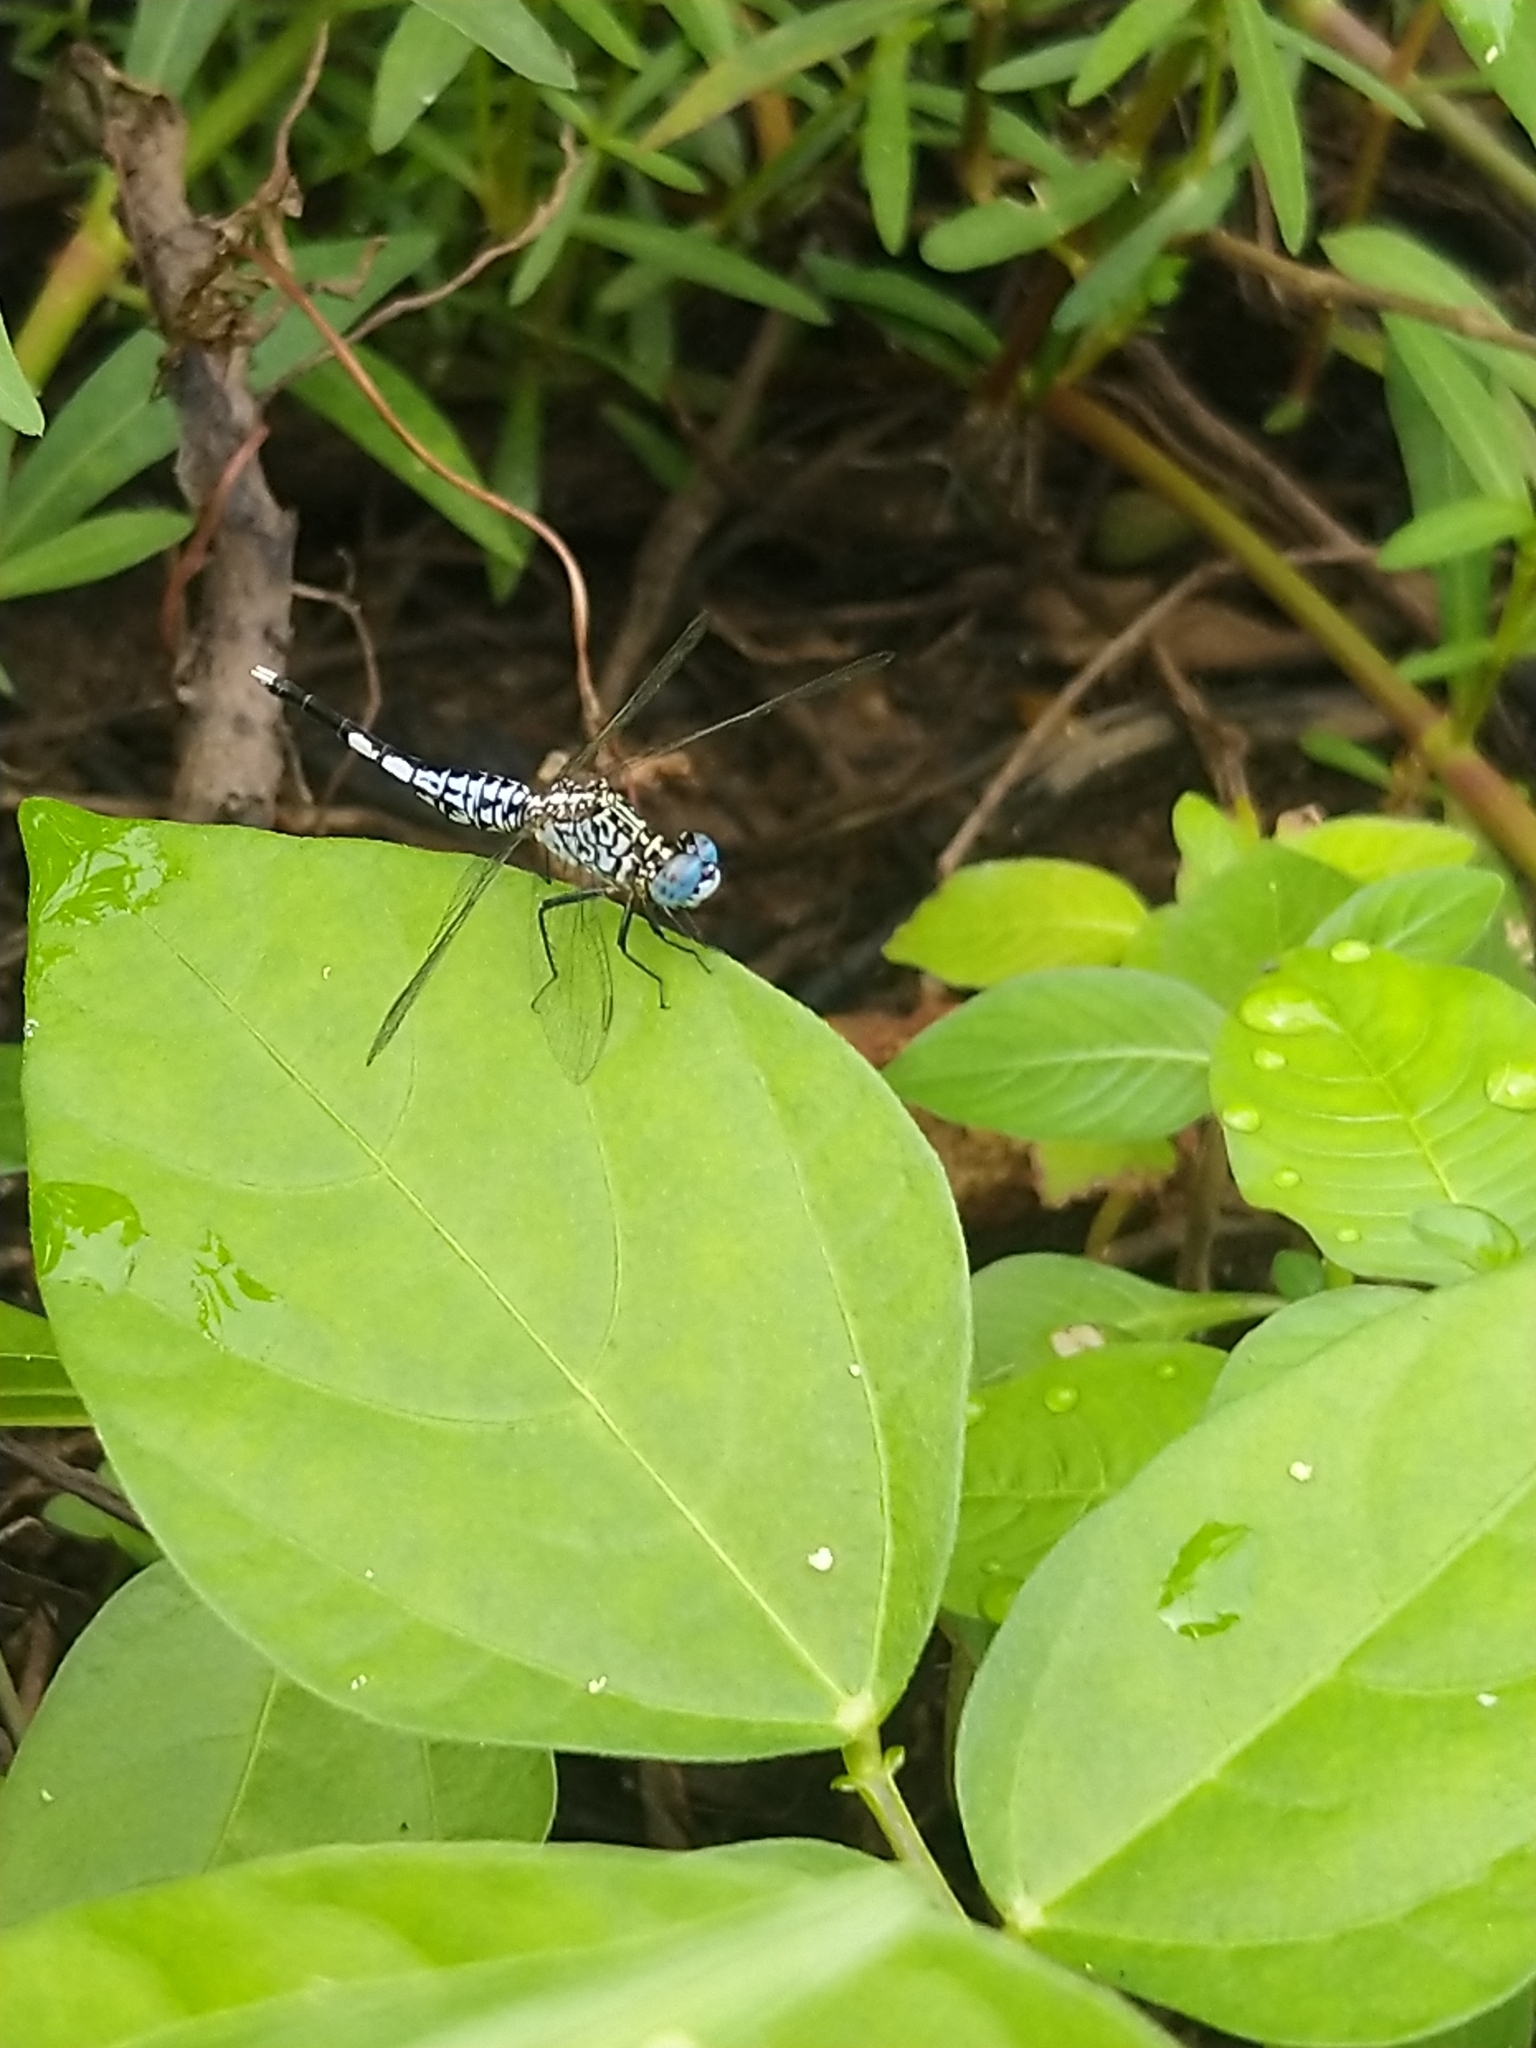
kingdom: Animalia
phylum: Arthropoda
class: Insecta
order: Odonata
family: Libellulidae
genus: Acisoma
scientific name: Acisoma panorpoides
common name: Asian pintail
